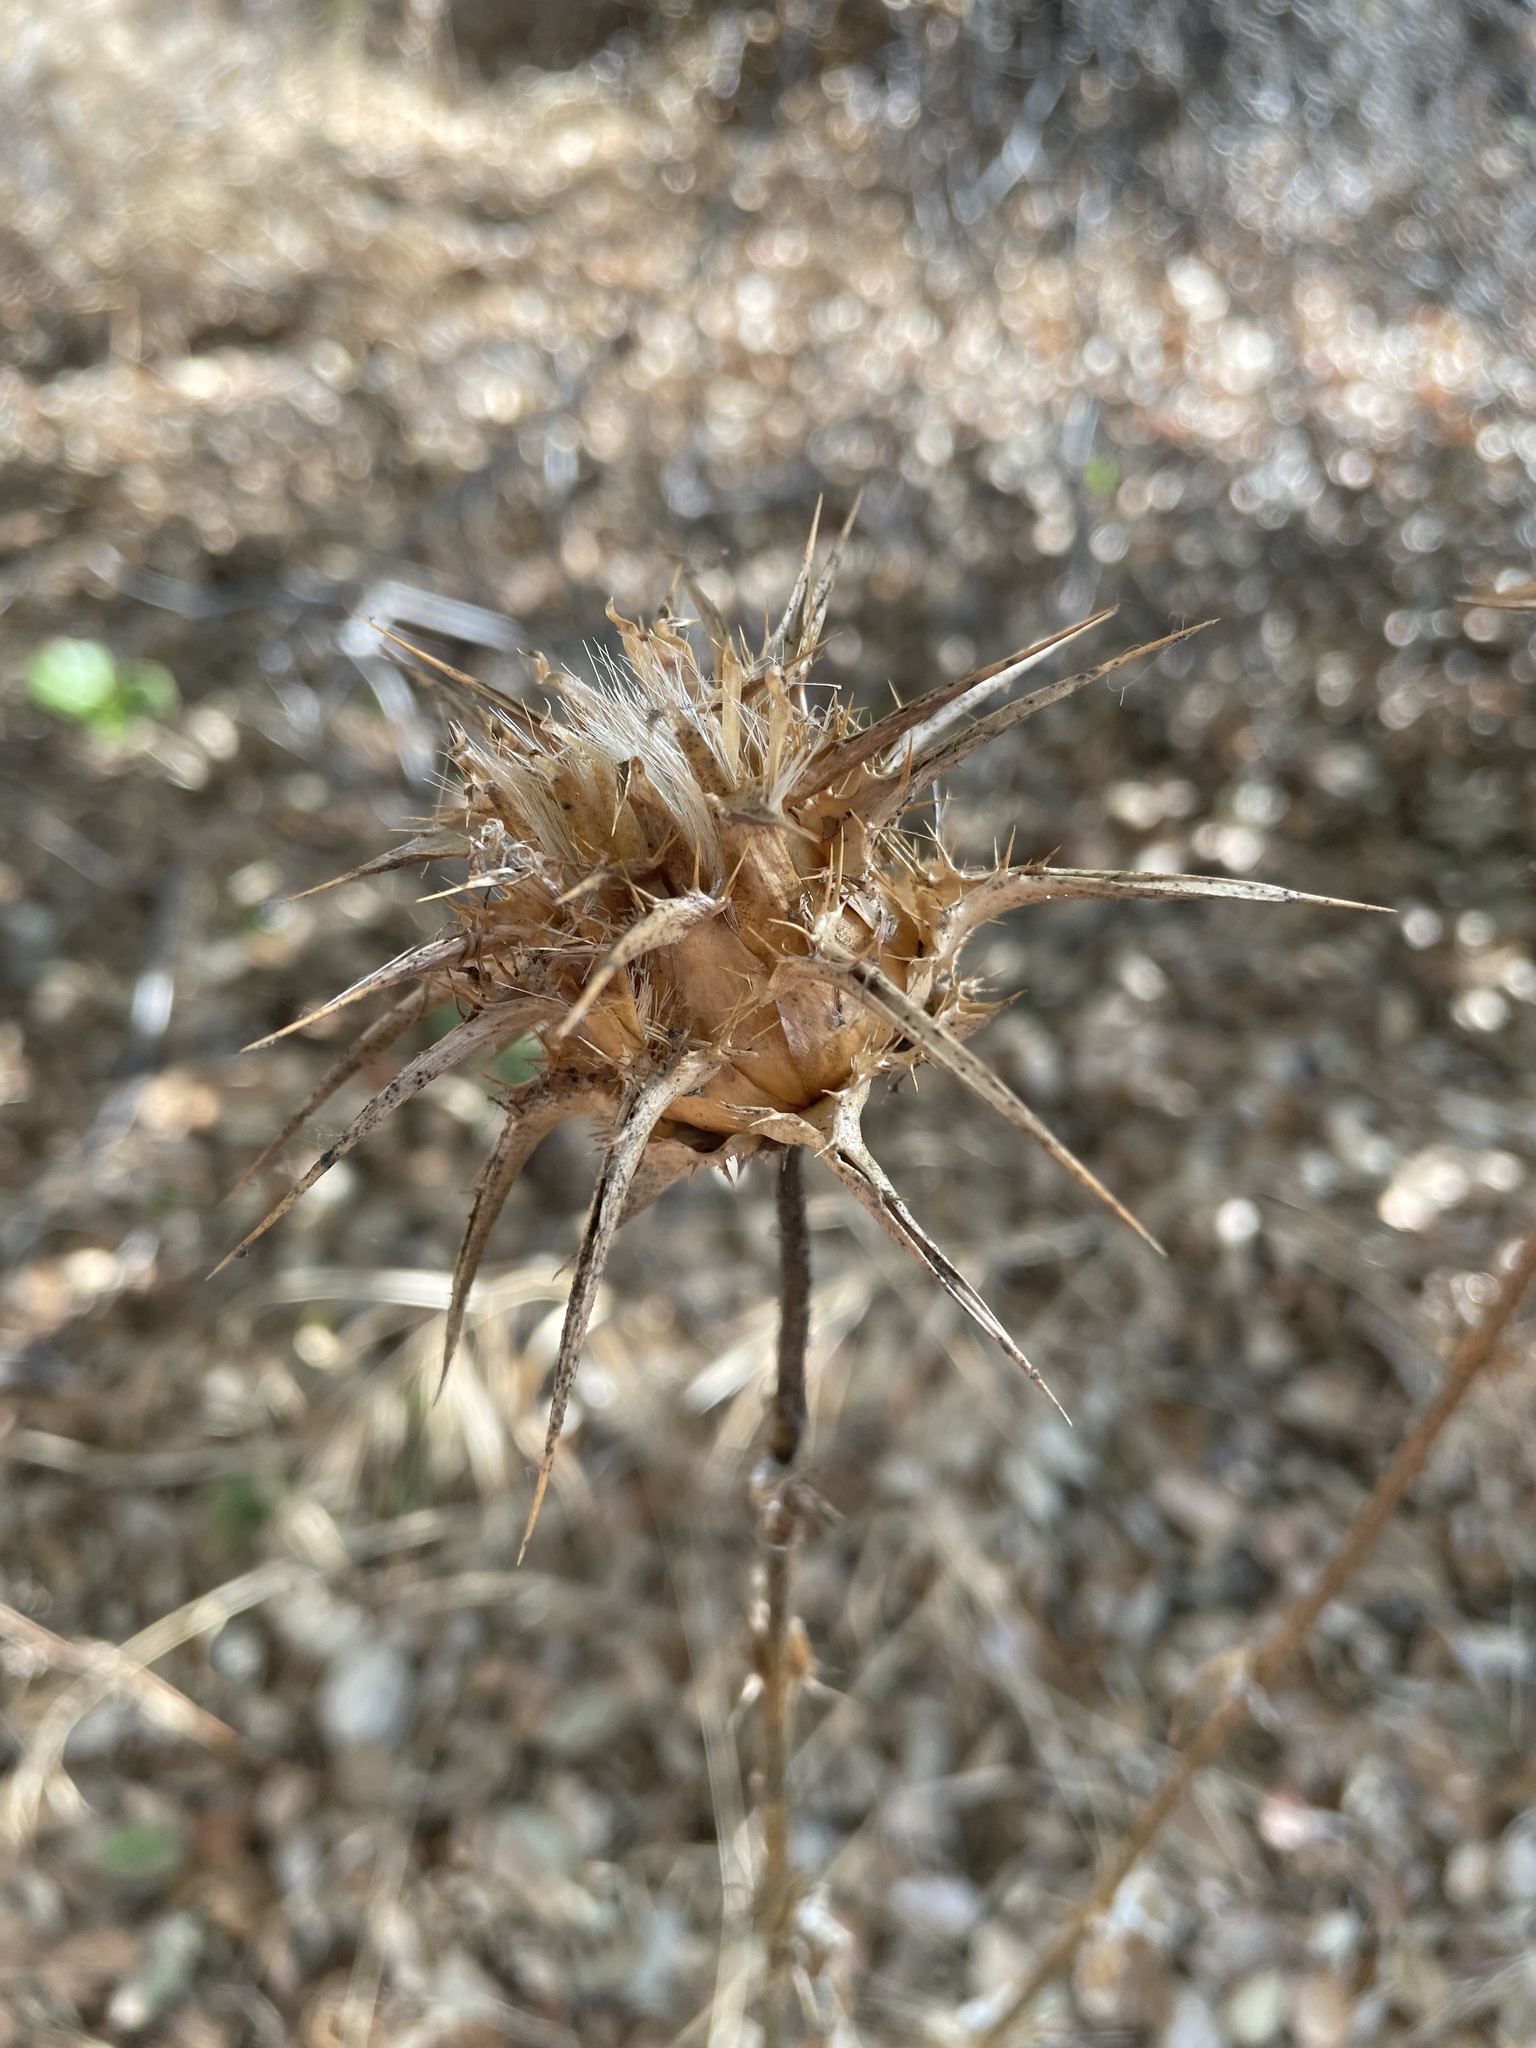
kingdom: Plantae
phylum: Tracheophyta
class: Magnoliopsida
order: Asterales
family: Asteraceae
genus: Silybum
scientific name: Silybum marianum
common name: Milk thistle
